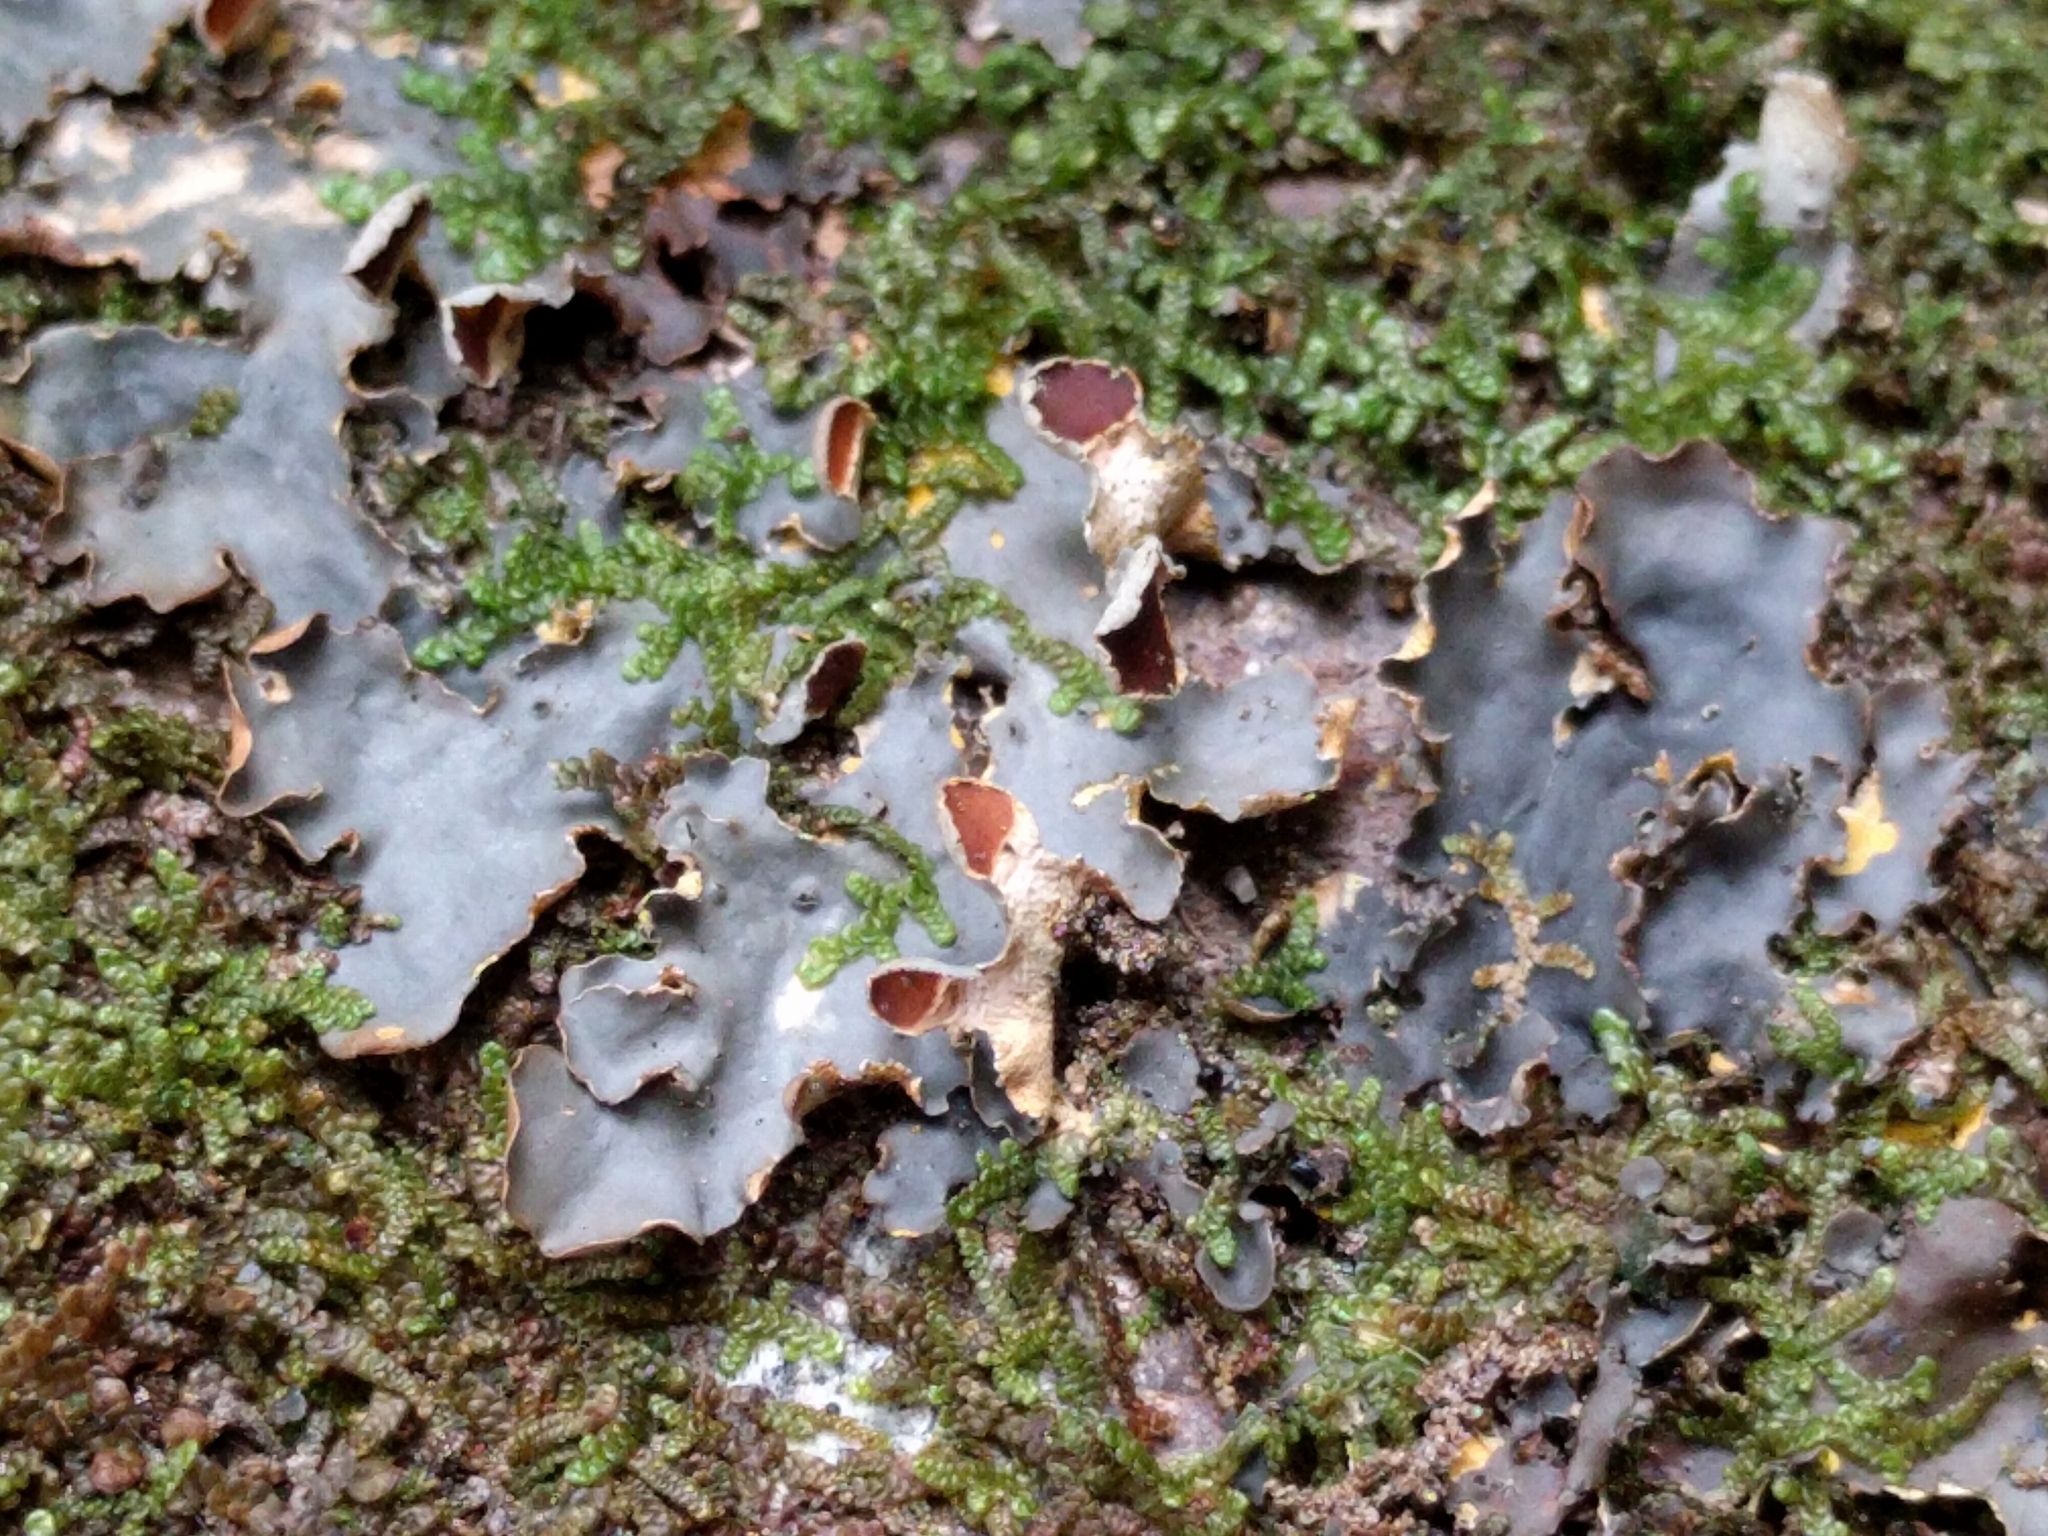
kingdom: Fungi
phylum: Ascomycota
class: Lecanoromycetes
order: Peltigerales
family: Nephromataceae
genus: Nephroma
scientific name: Nephroma laevigatum
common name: Mustard kidney lichen
